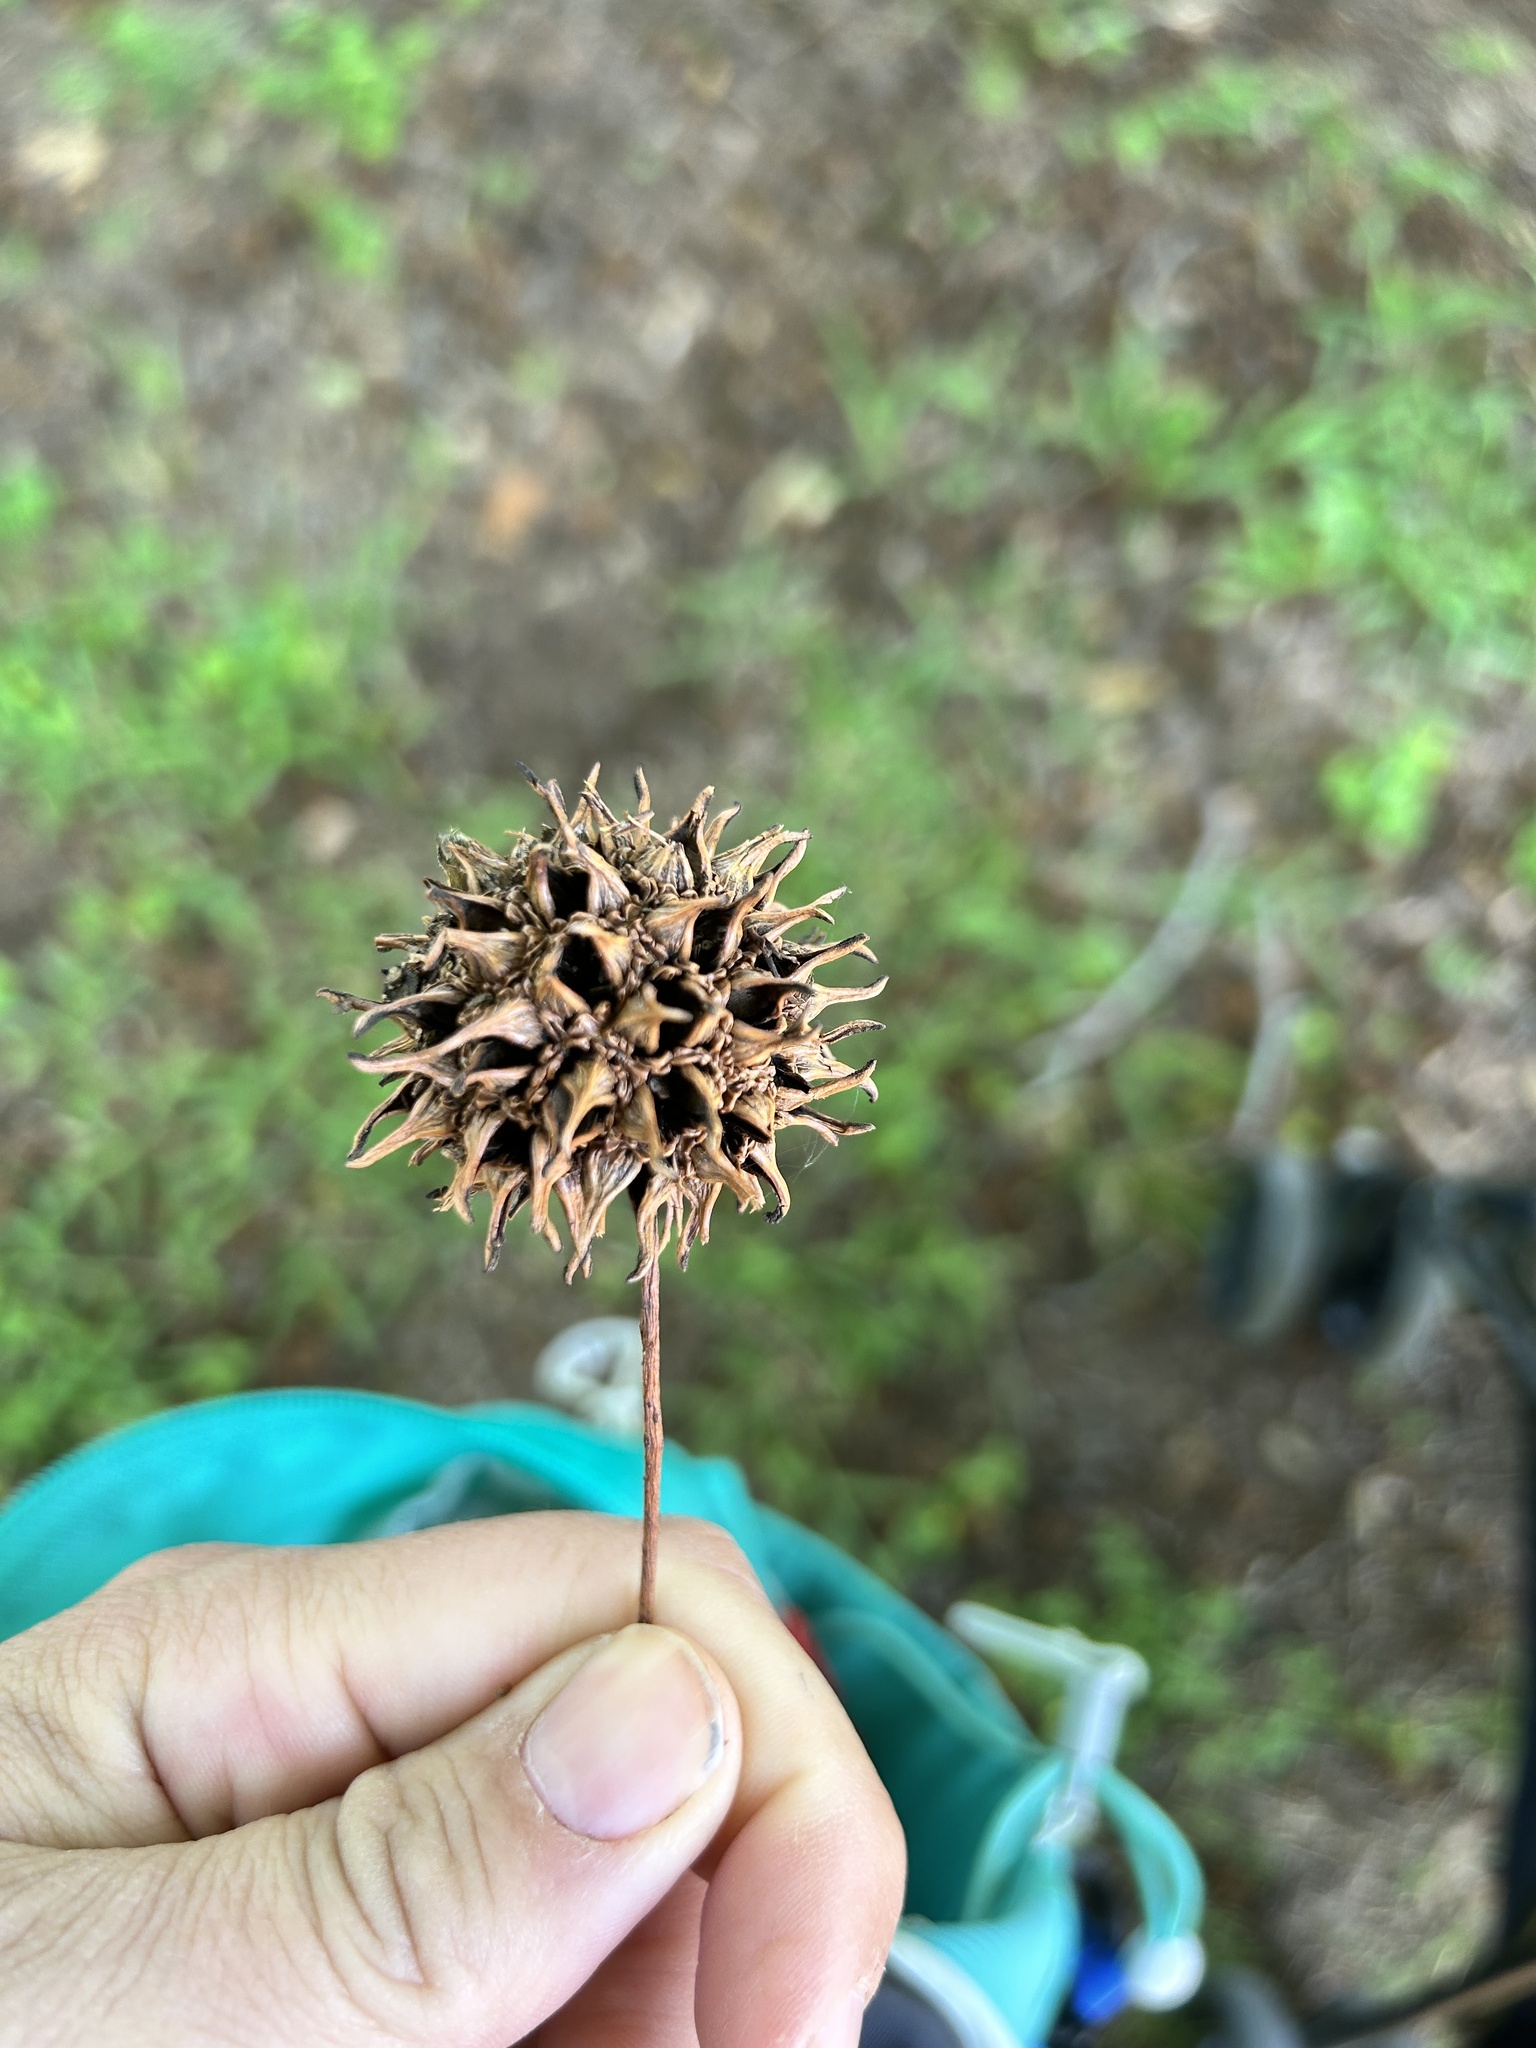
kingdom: Plantae
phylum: Tracheophyta
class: Magnoliopsida
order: Saxifragales
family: Altingiaceae
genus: Liquidambar
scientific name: Liquidambar styraciflua
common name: Sweet gum
